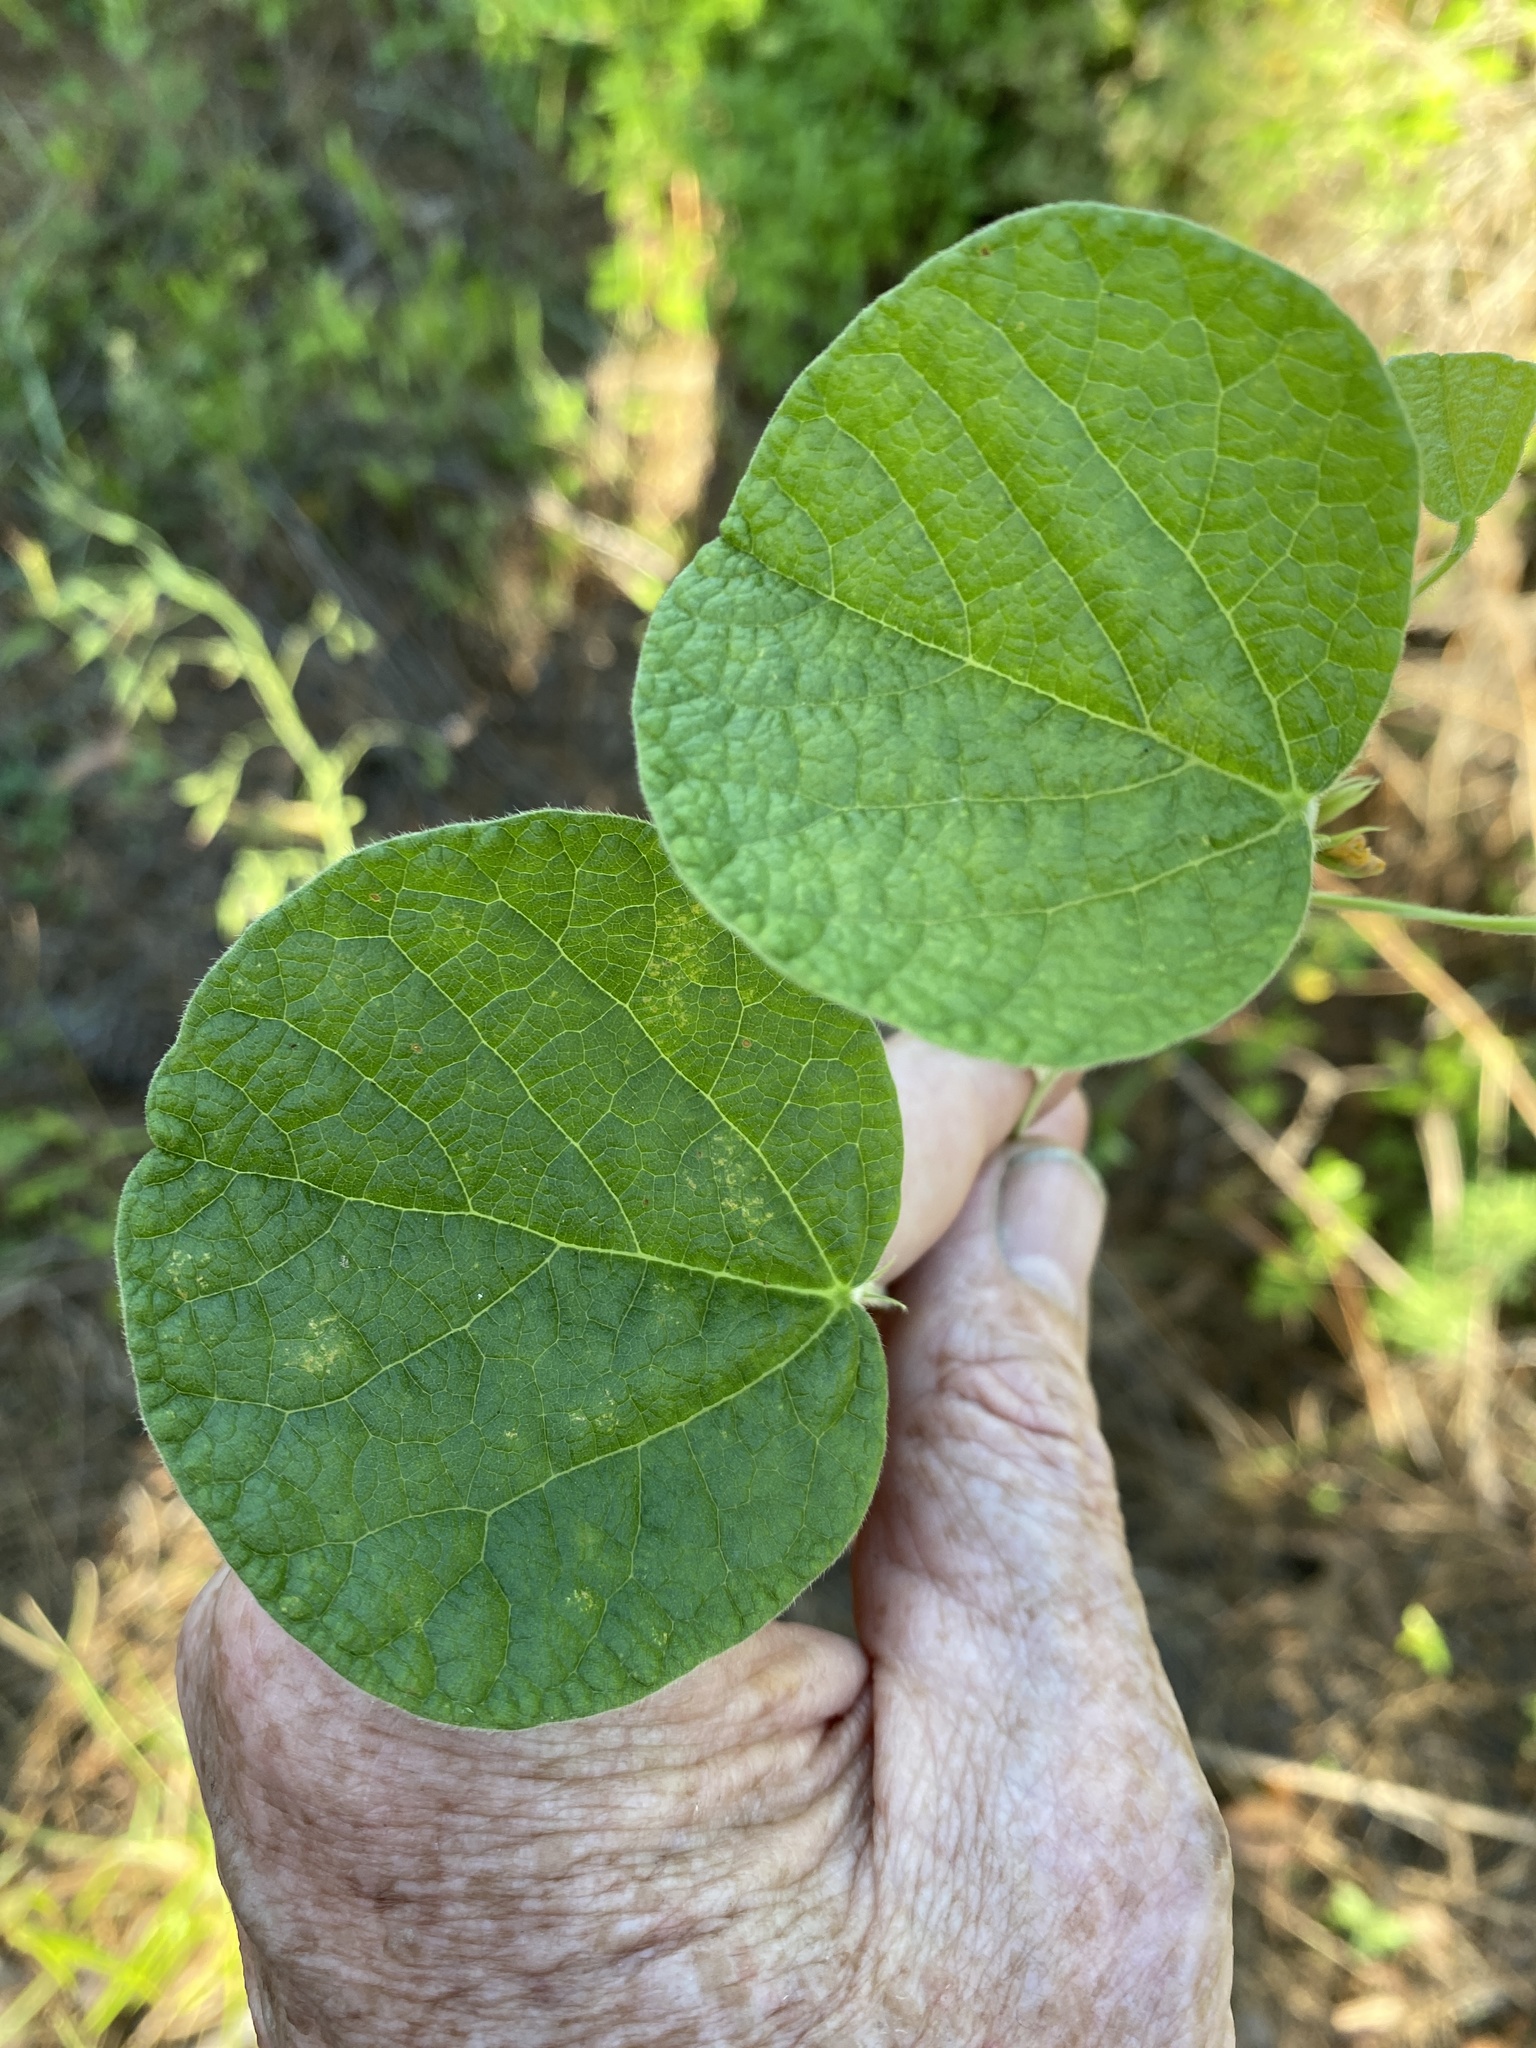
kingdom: Plantae
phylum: Tracheophyta
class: Magnoliopsida
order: Fabales
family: Fabaceae
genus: Rhynchosia
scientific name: Rhynchosia reniformis
